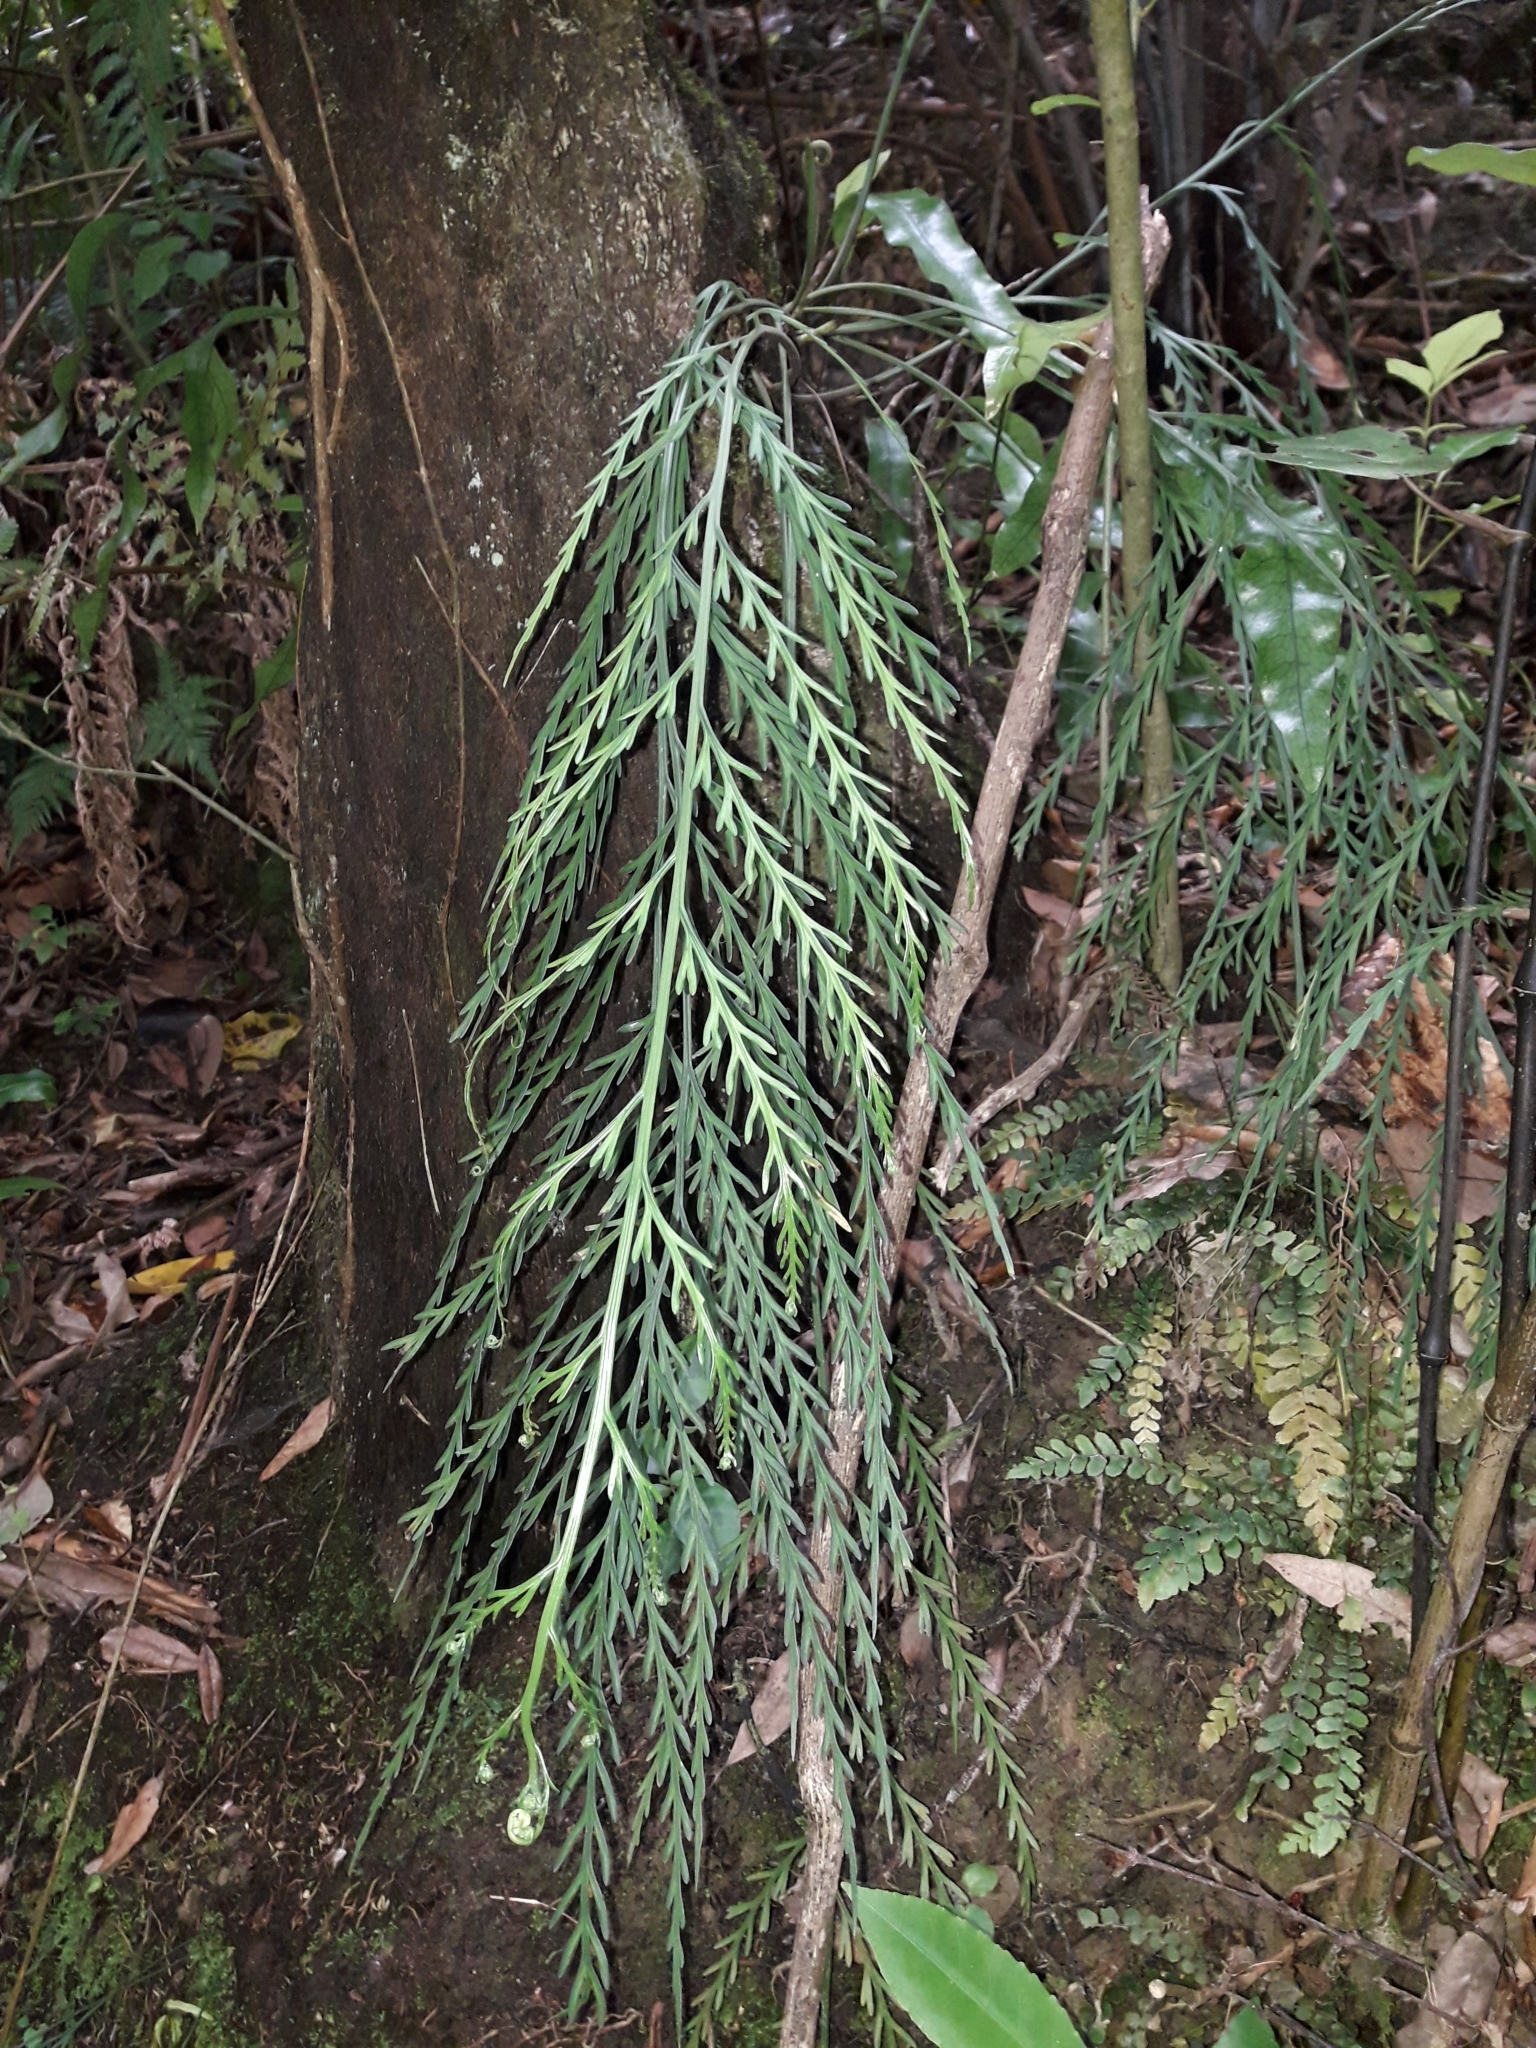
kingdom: Plantae
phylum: Tracheophyta
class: Polypodiopsida
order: Polypodiales
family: Aspleniaceae
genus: Asplenium
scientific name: Asplenium flaccidum
